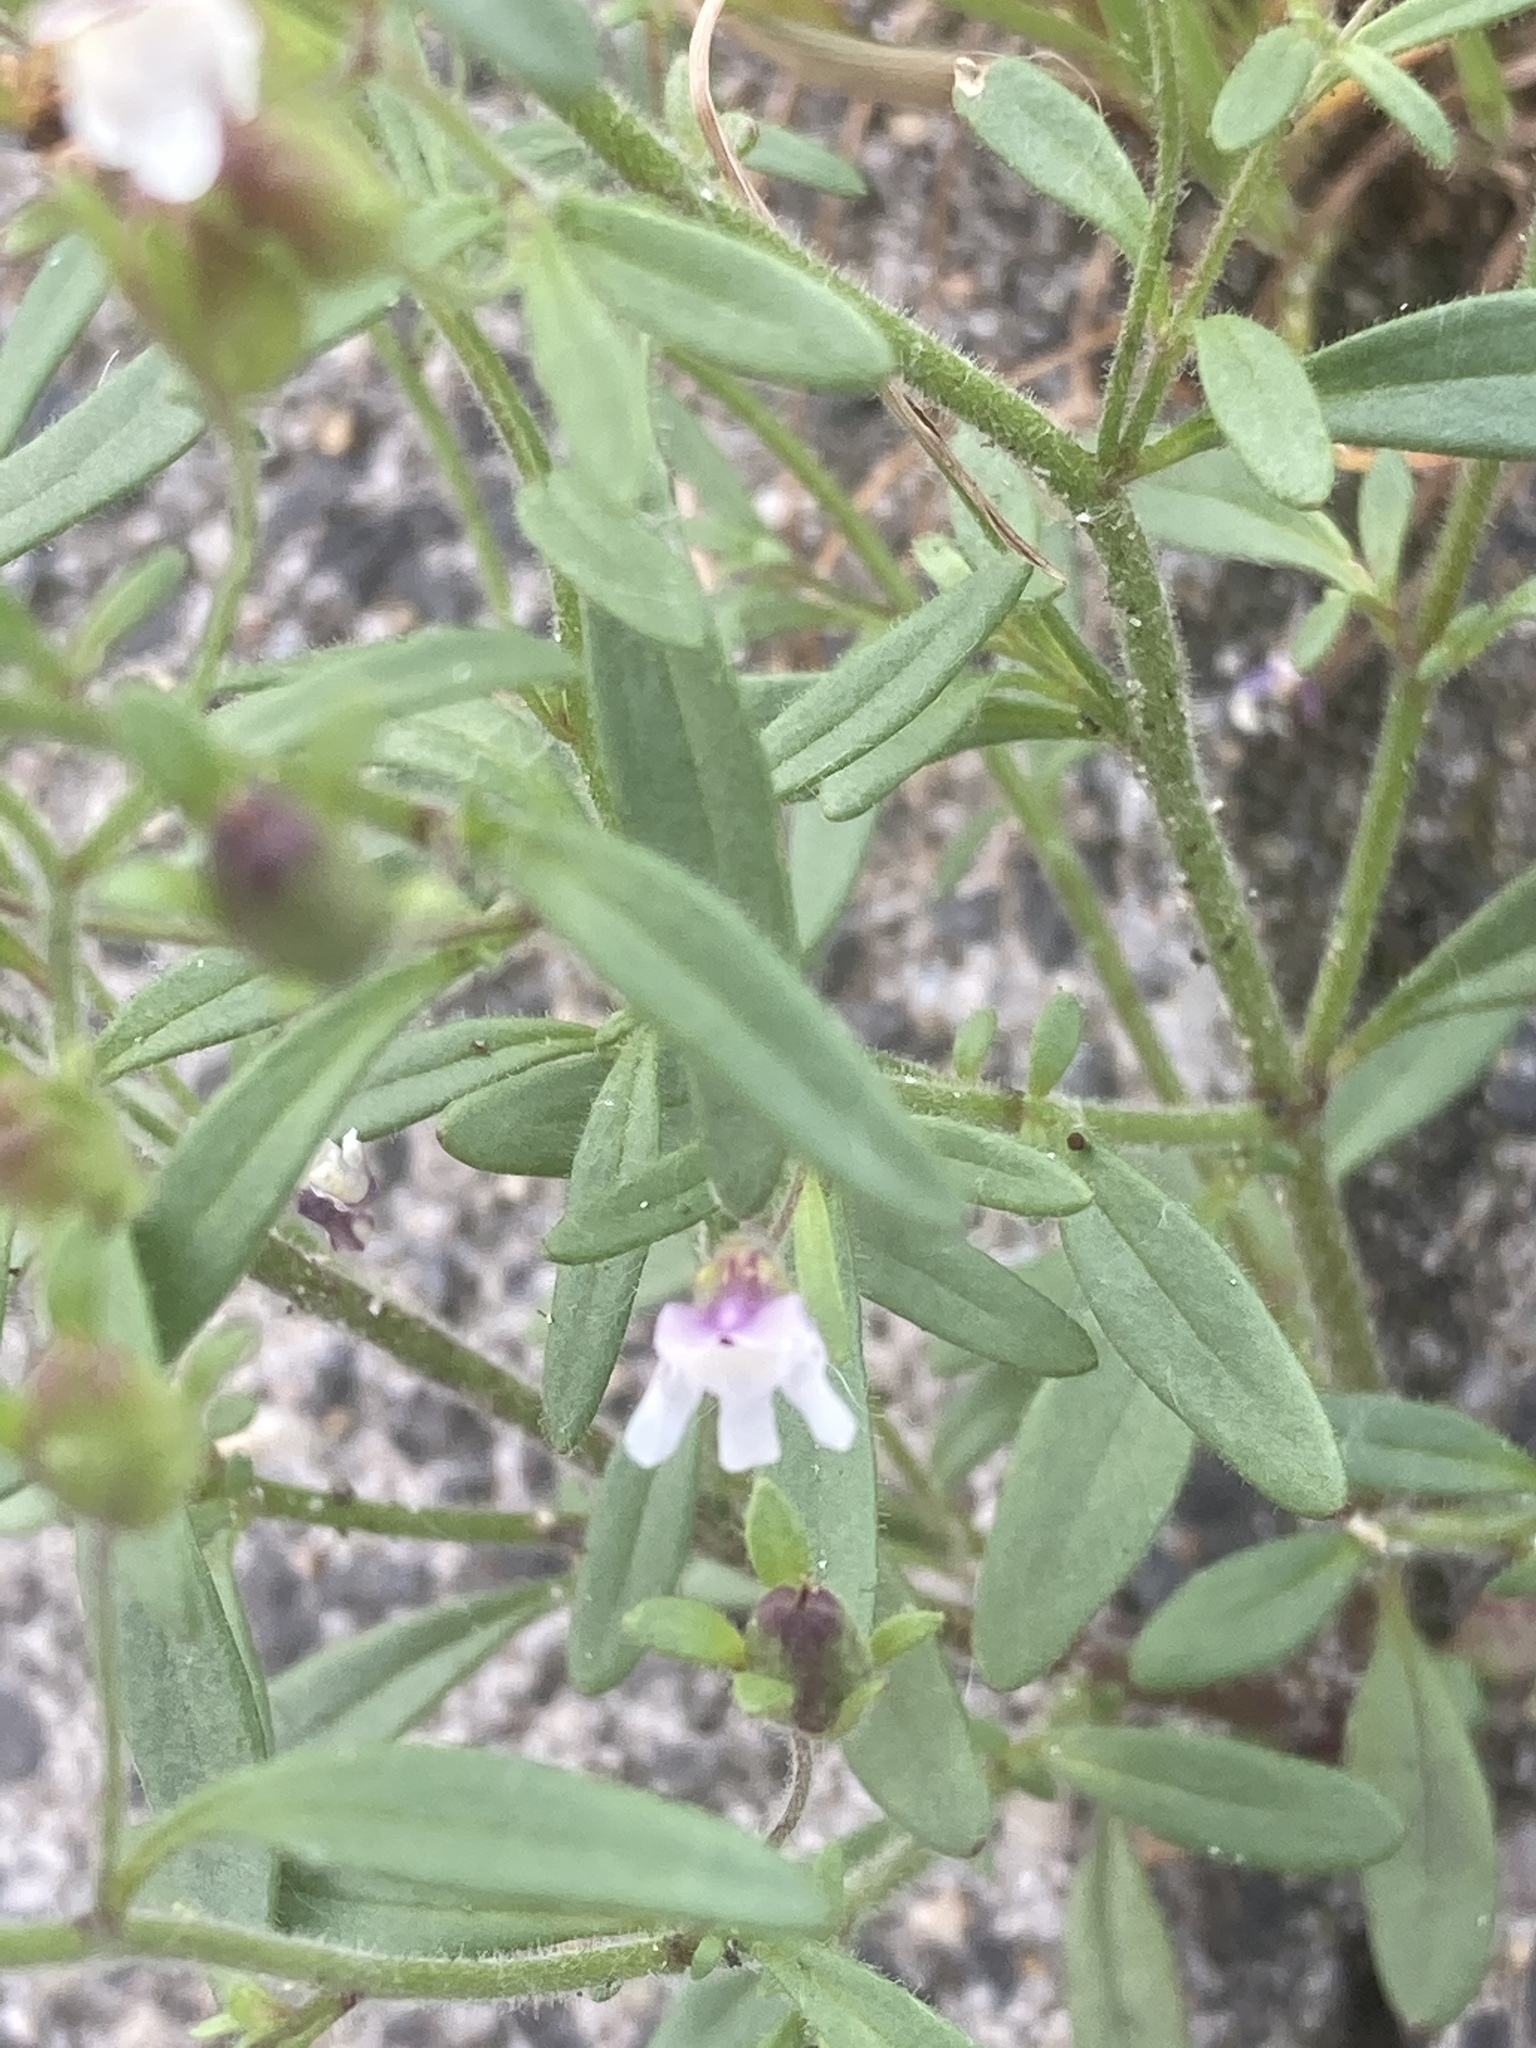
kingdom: Plantae
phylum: Tracheophyta
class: Magnoliopsida
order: Lamiales
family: Plantaginaceae
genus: Chaenorhinum
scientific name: Chaenorhinum minus
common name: Dwarf snapdragon
